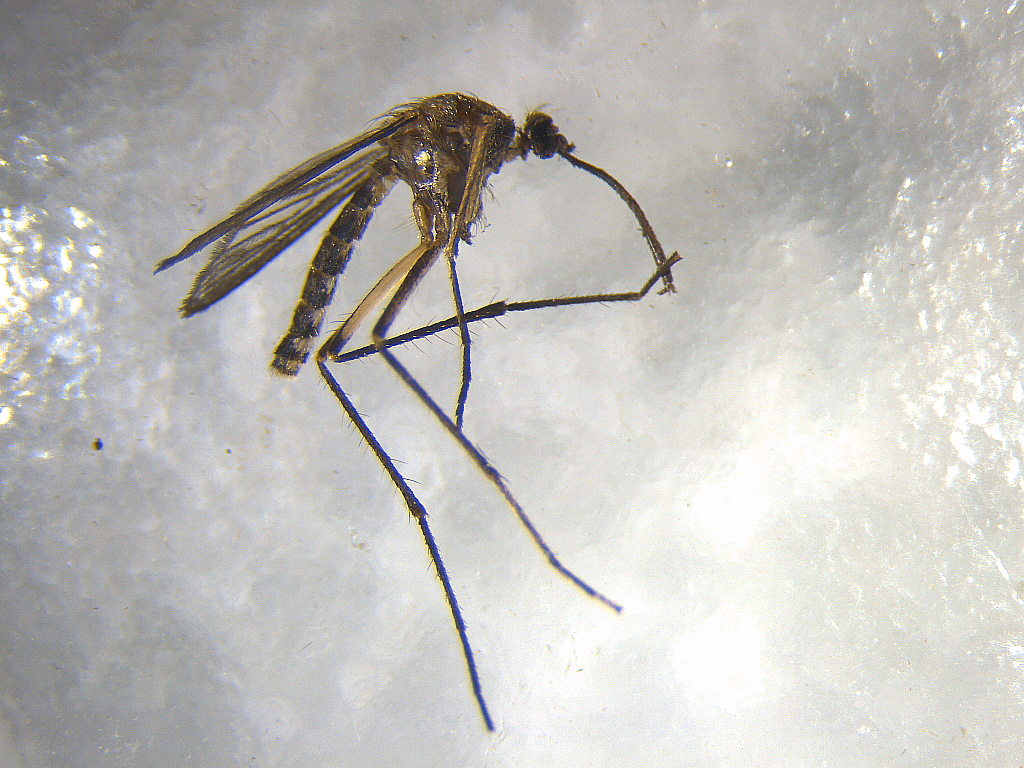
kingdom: Animalia
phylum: Arthropoda
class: Insecta
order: Diptera
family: Culicidae
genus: Coquillettidia
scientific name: Coquillettidia iracunda
